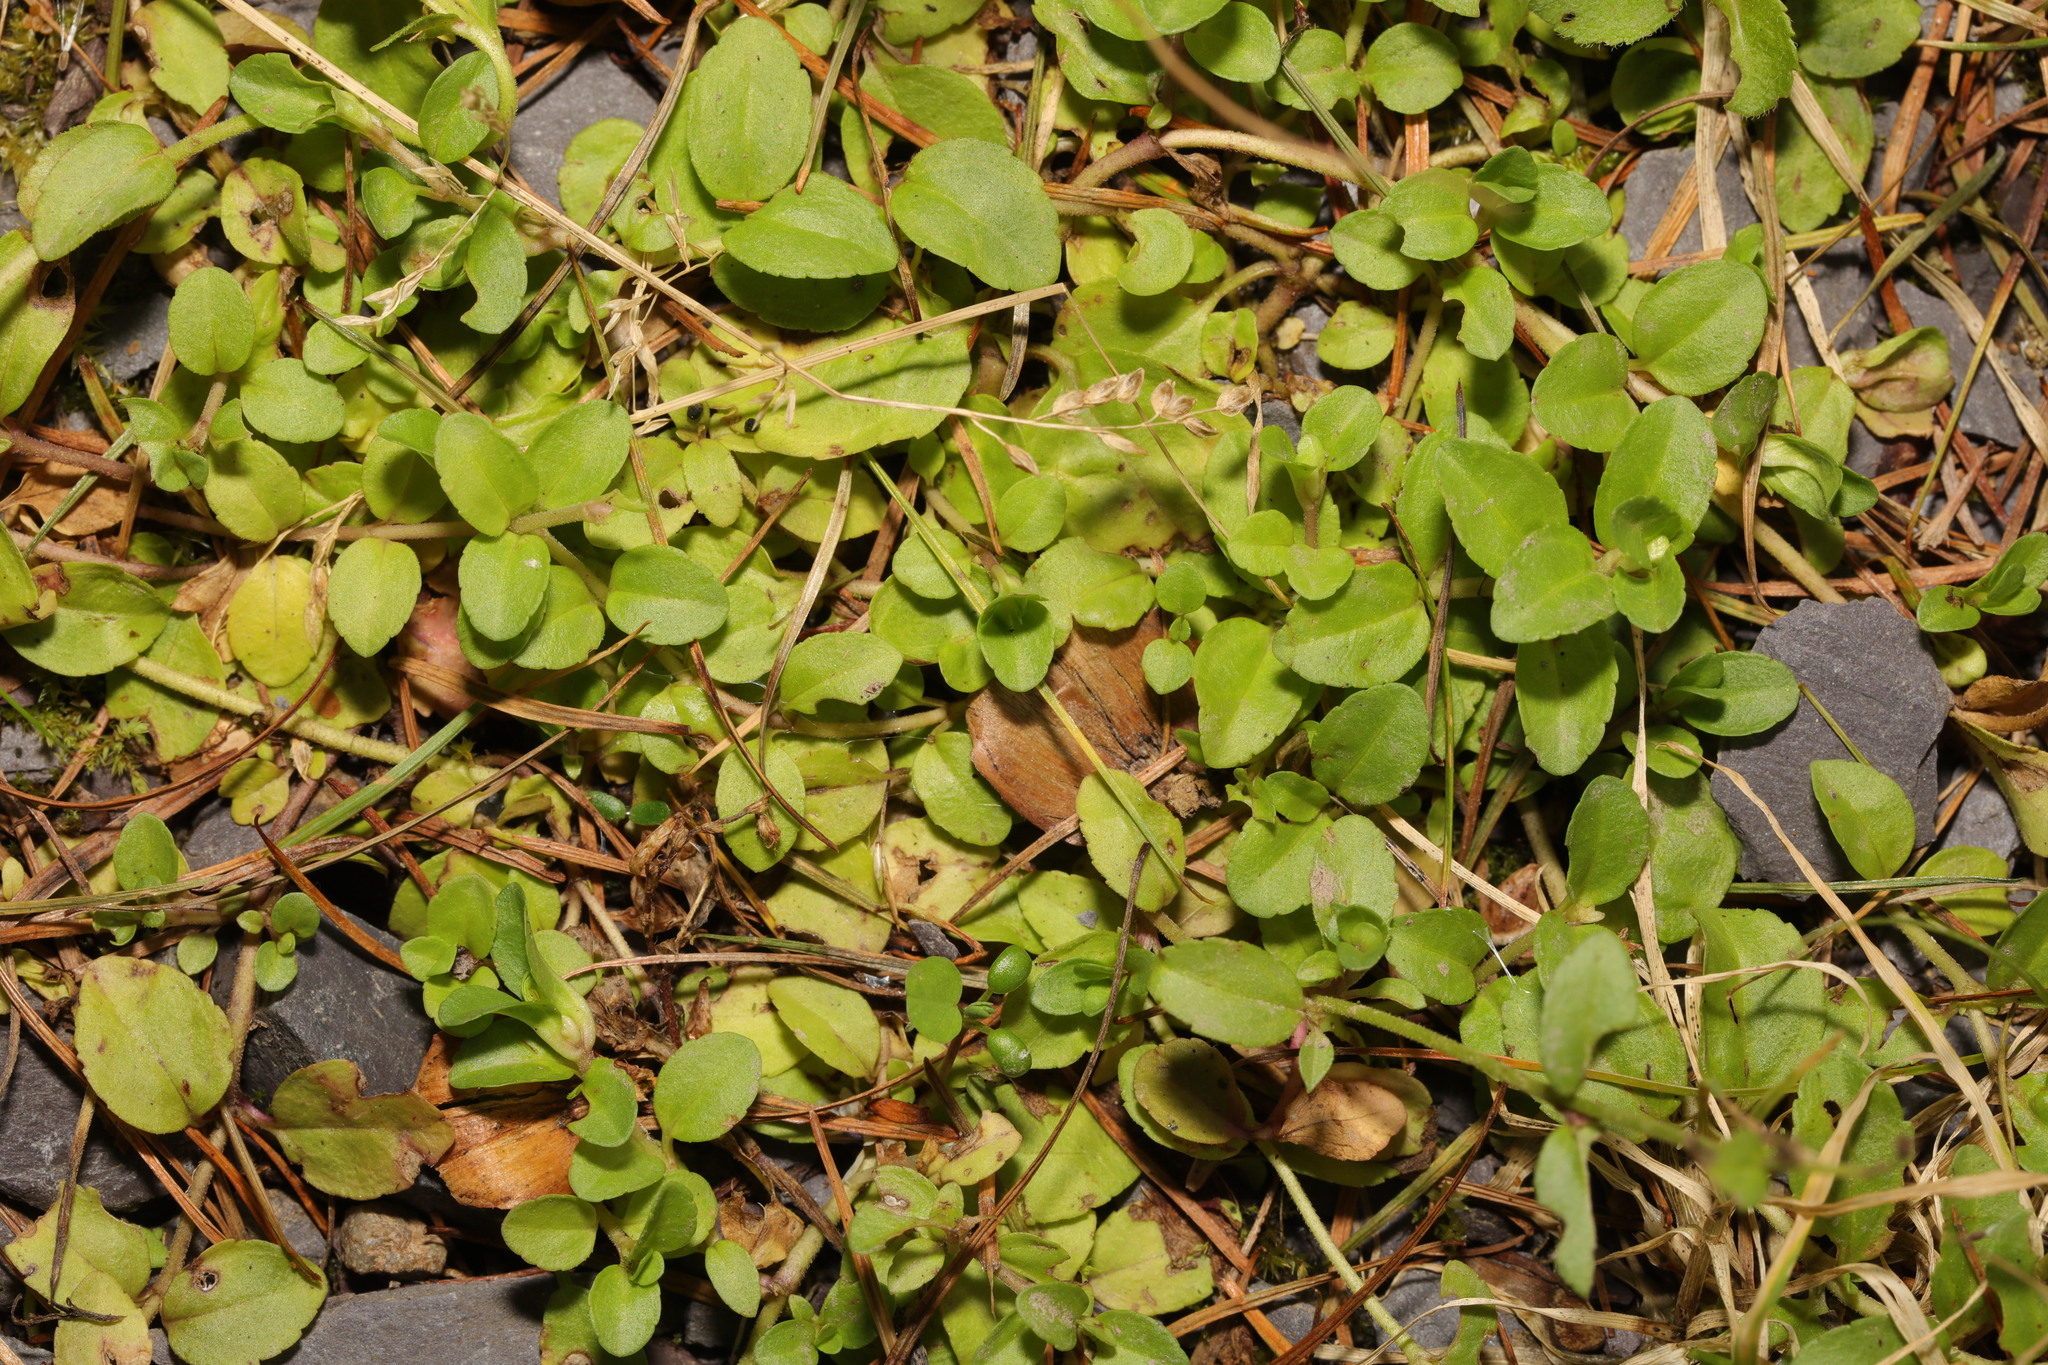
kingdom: Plantae
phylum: Tracheophyta
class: Magnoliopsida
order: Lamiales
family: Plantaginaceae
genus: Veronica
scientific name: Veronica serpyllifolia
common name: Thyme-leaved speedwell
